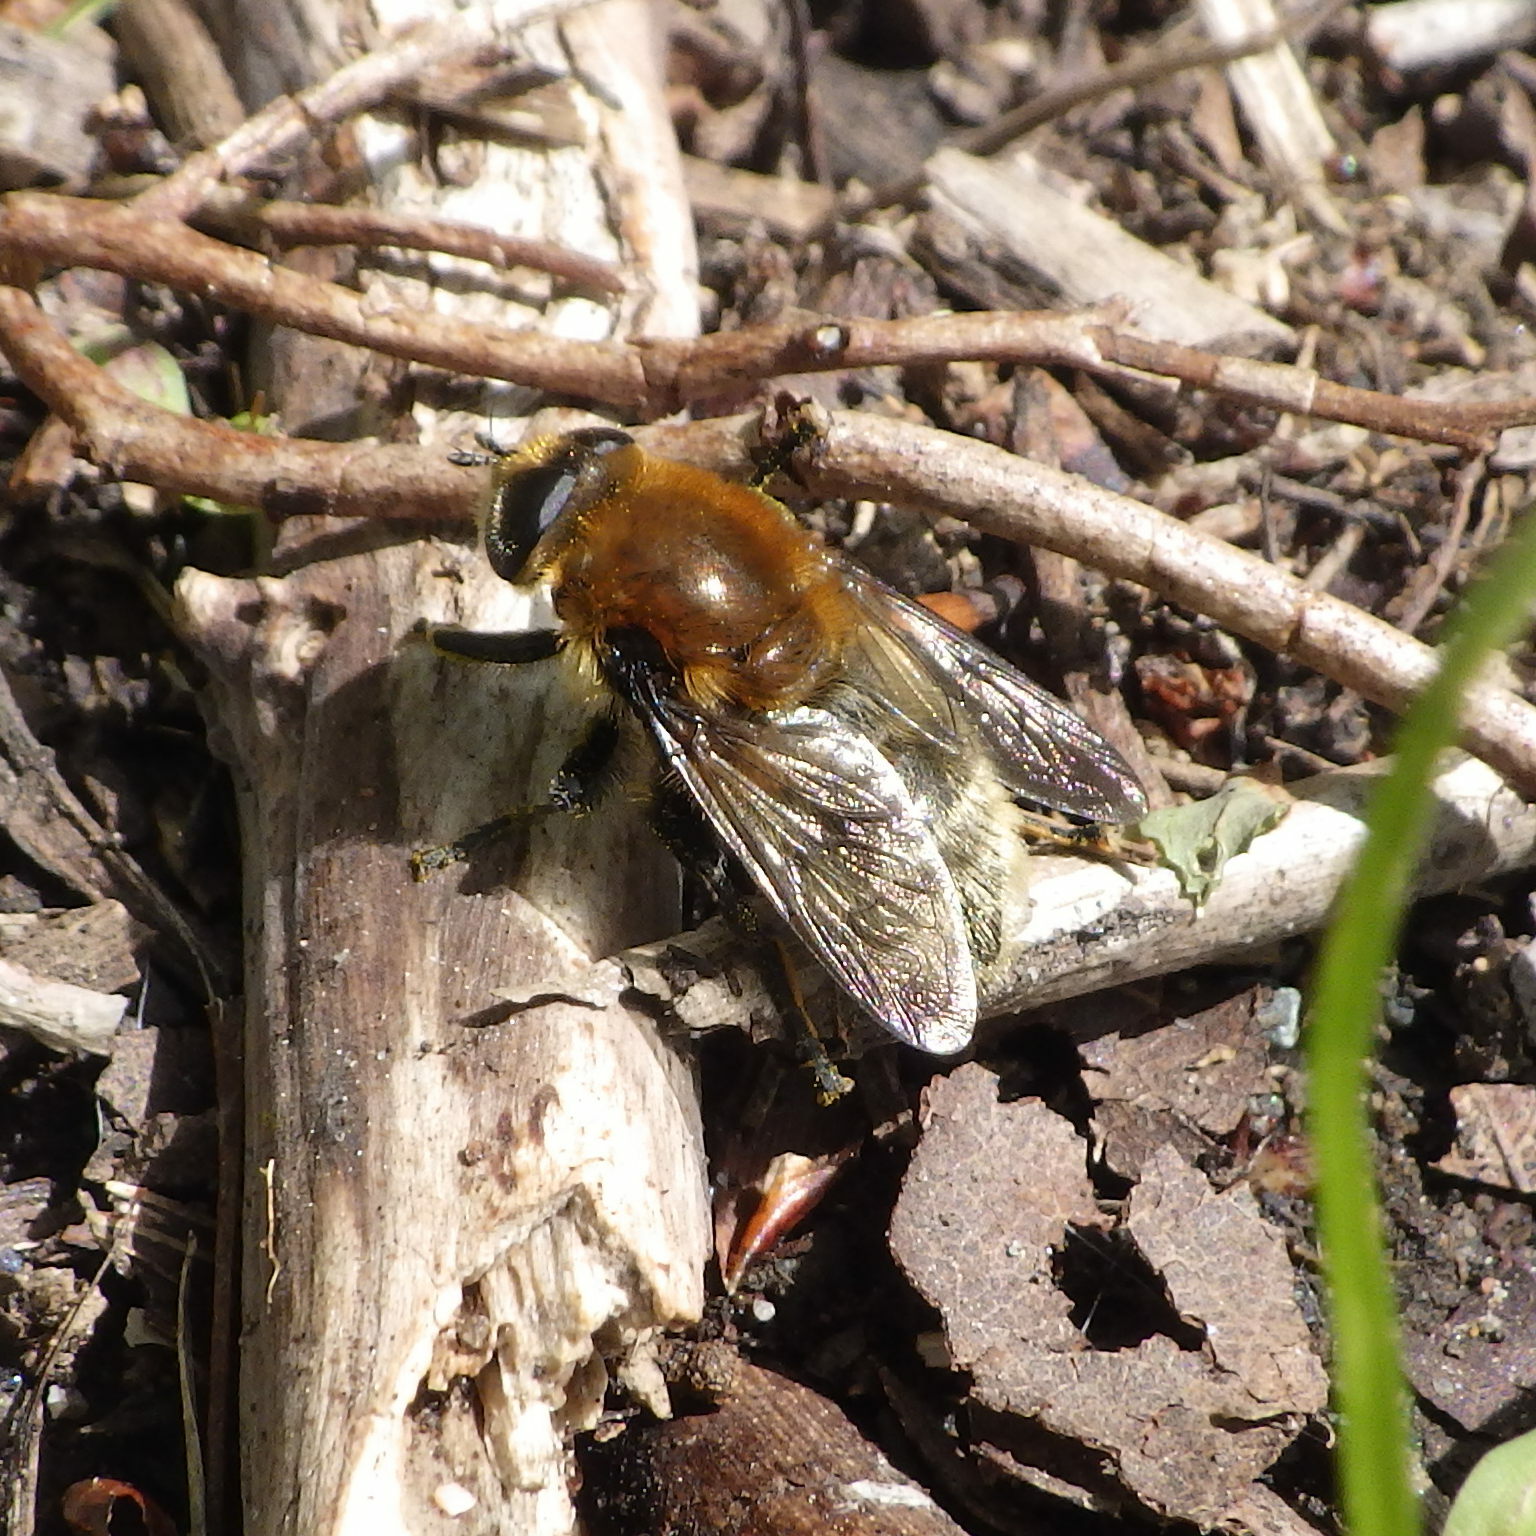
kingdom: Animalia
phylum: Arthropoda
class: Insecta
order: Diptera
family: Syrphidae
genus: Merodon
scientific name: Merodon equestris
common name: Greater bulb-fly
